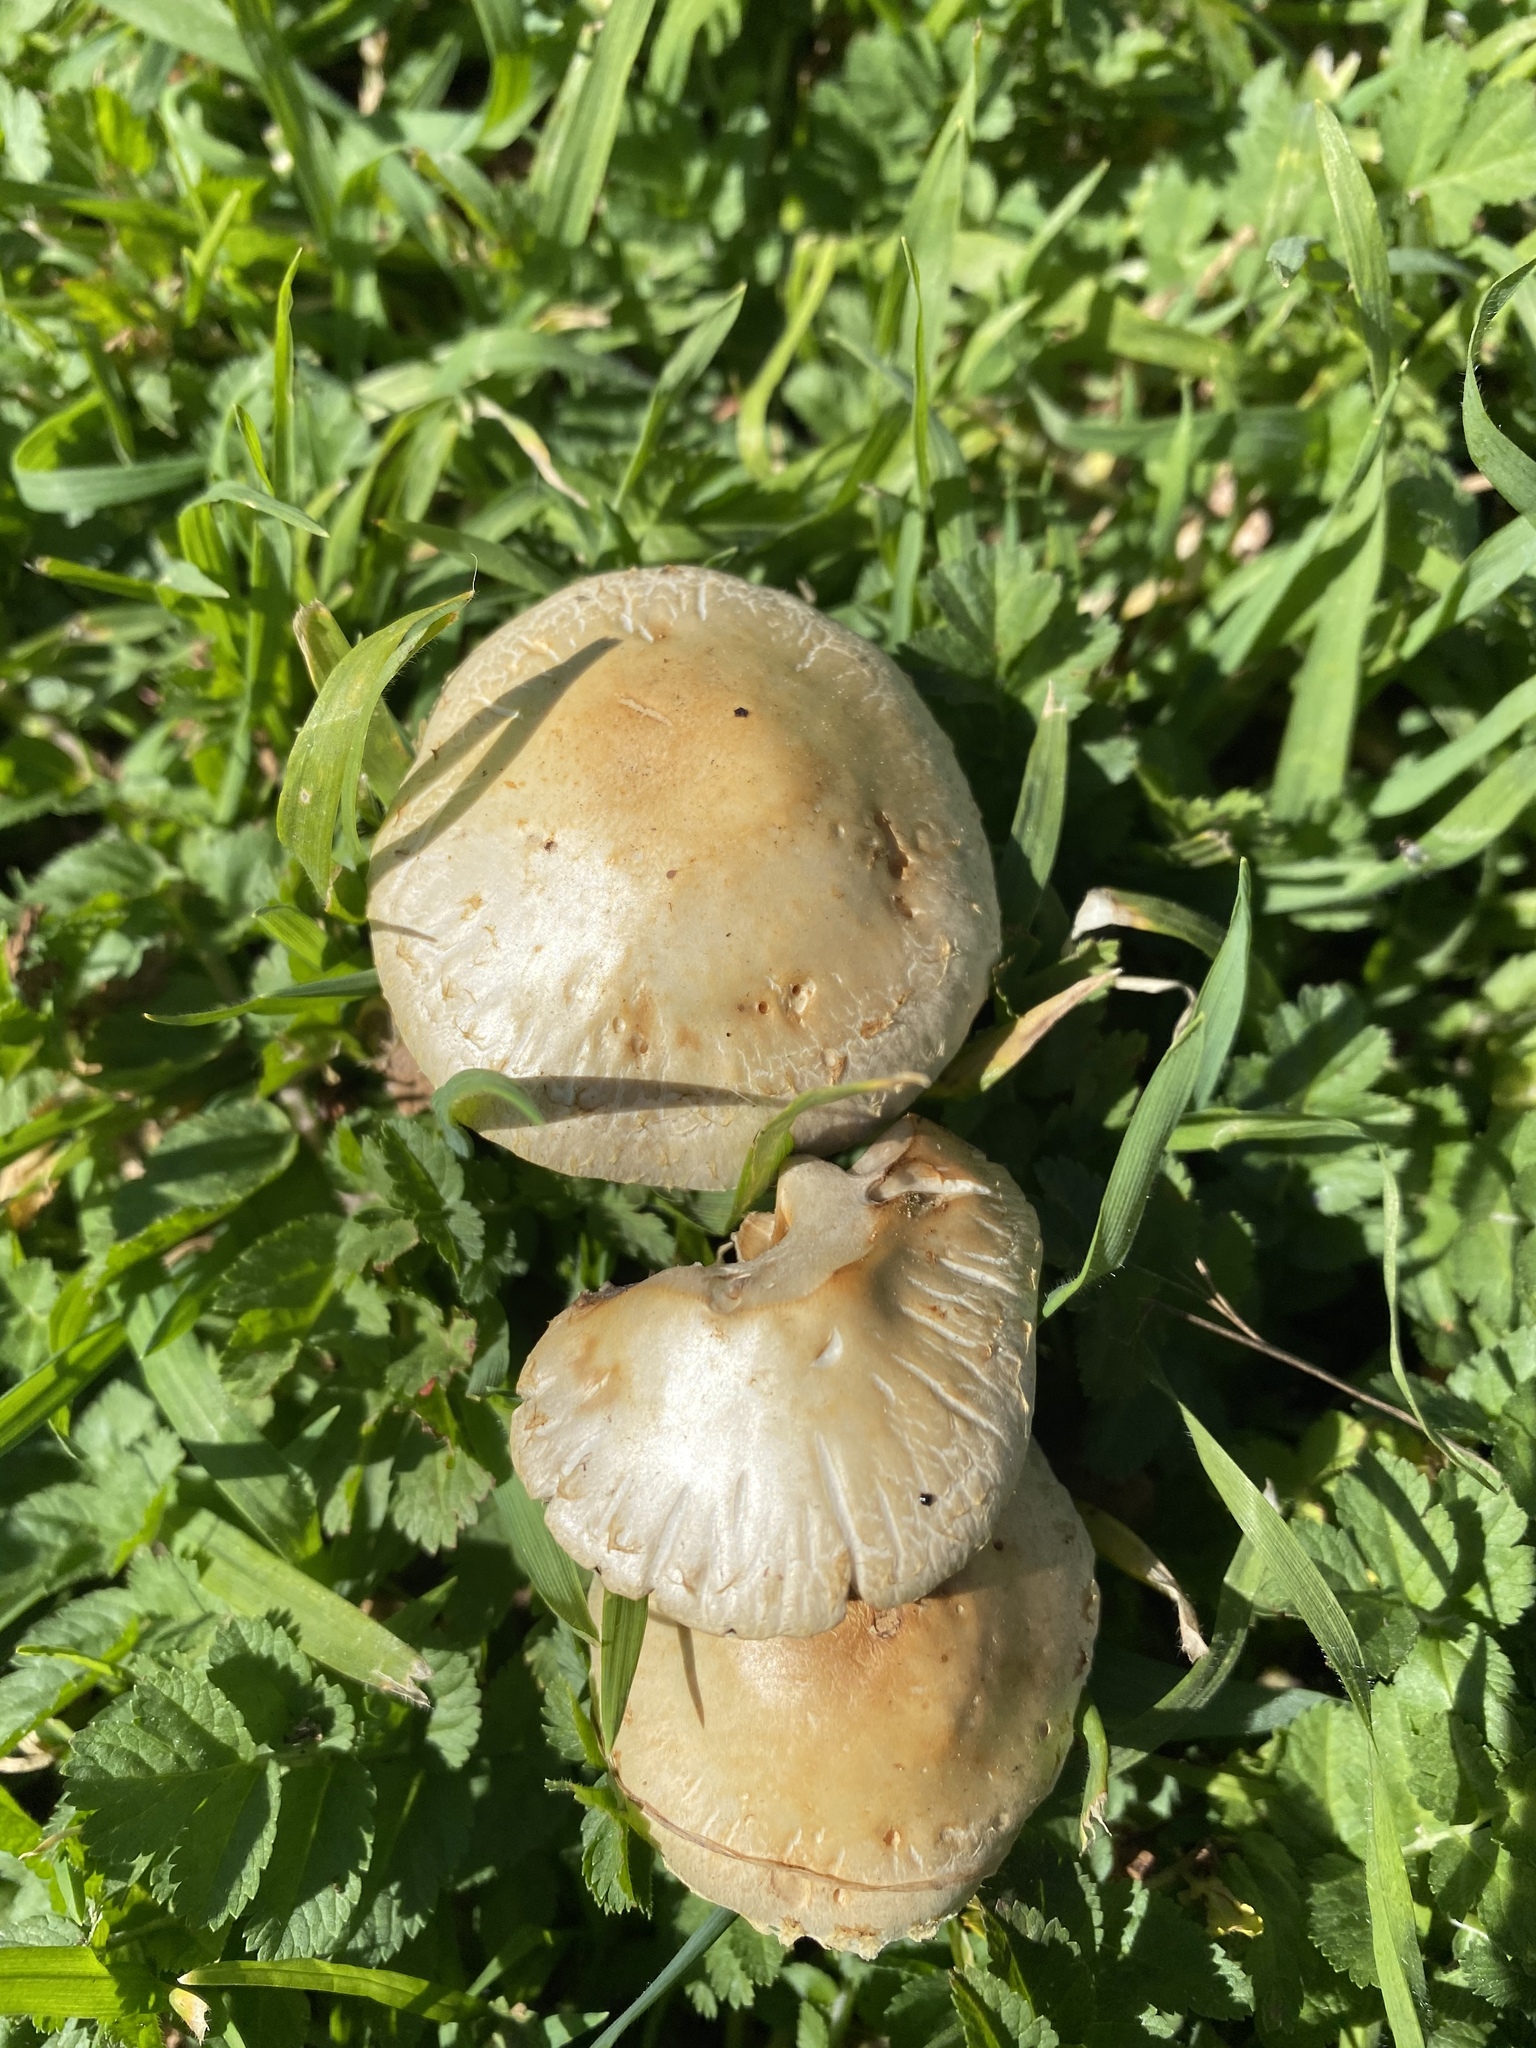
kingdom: Fungi
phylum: Basidiomycota
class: Agaricomycetes
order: Agaricales
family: Strophariaceae
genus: Leratiomyces
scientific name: Leratiomyces percevalii
